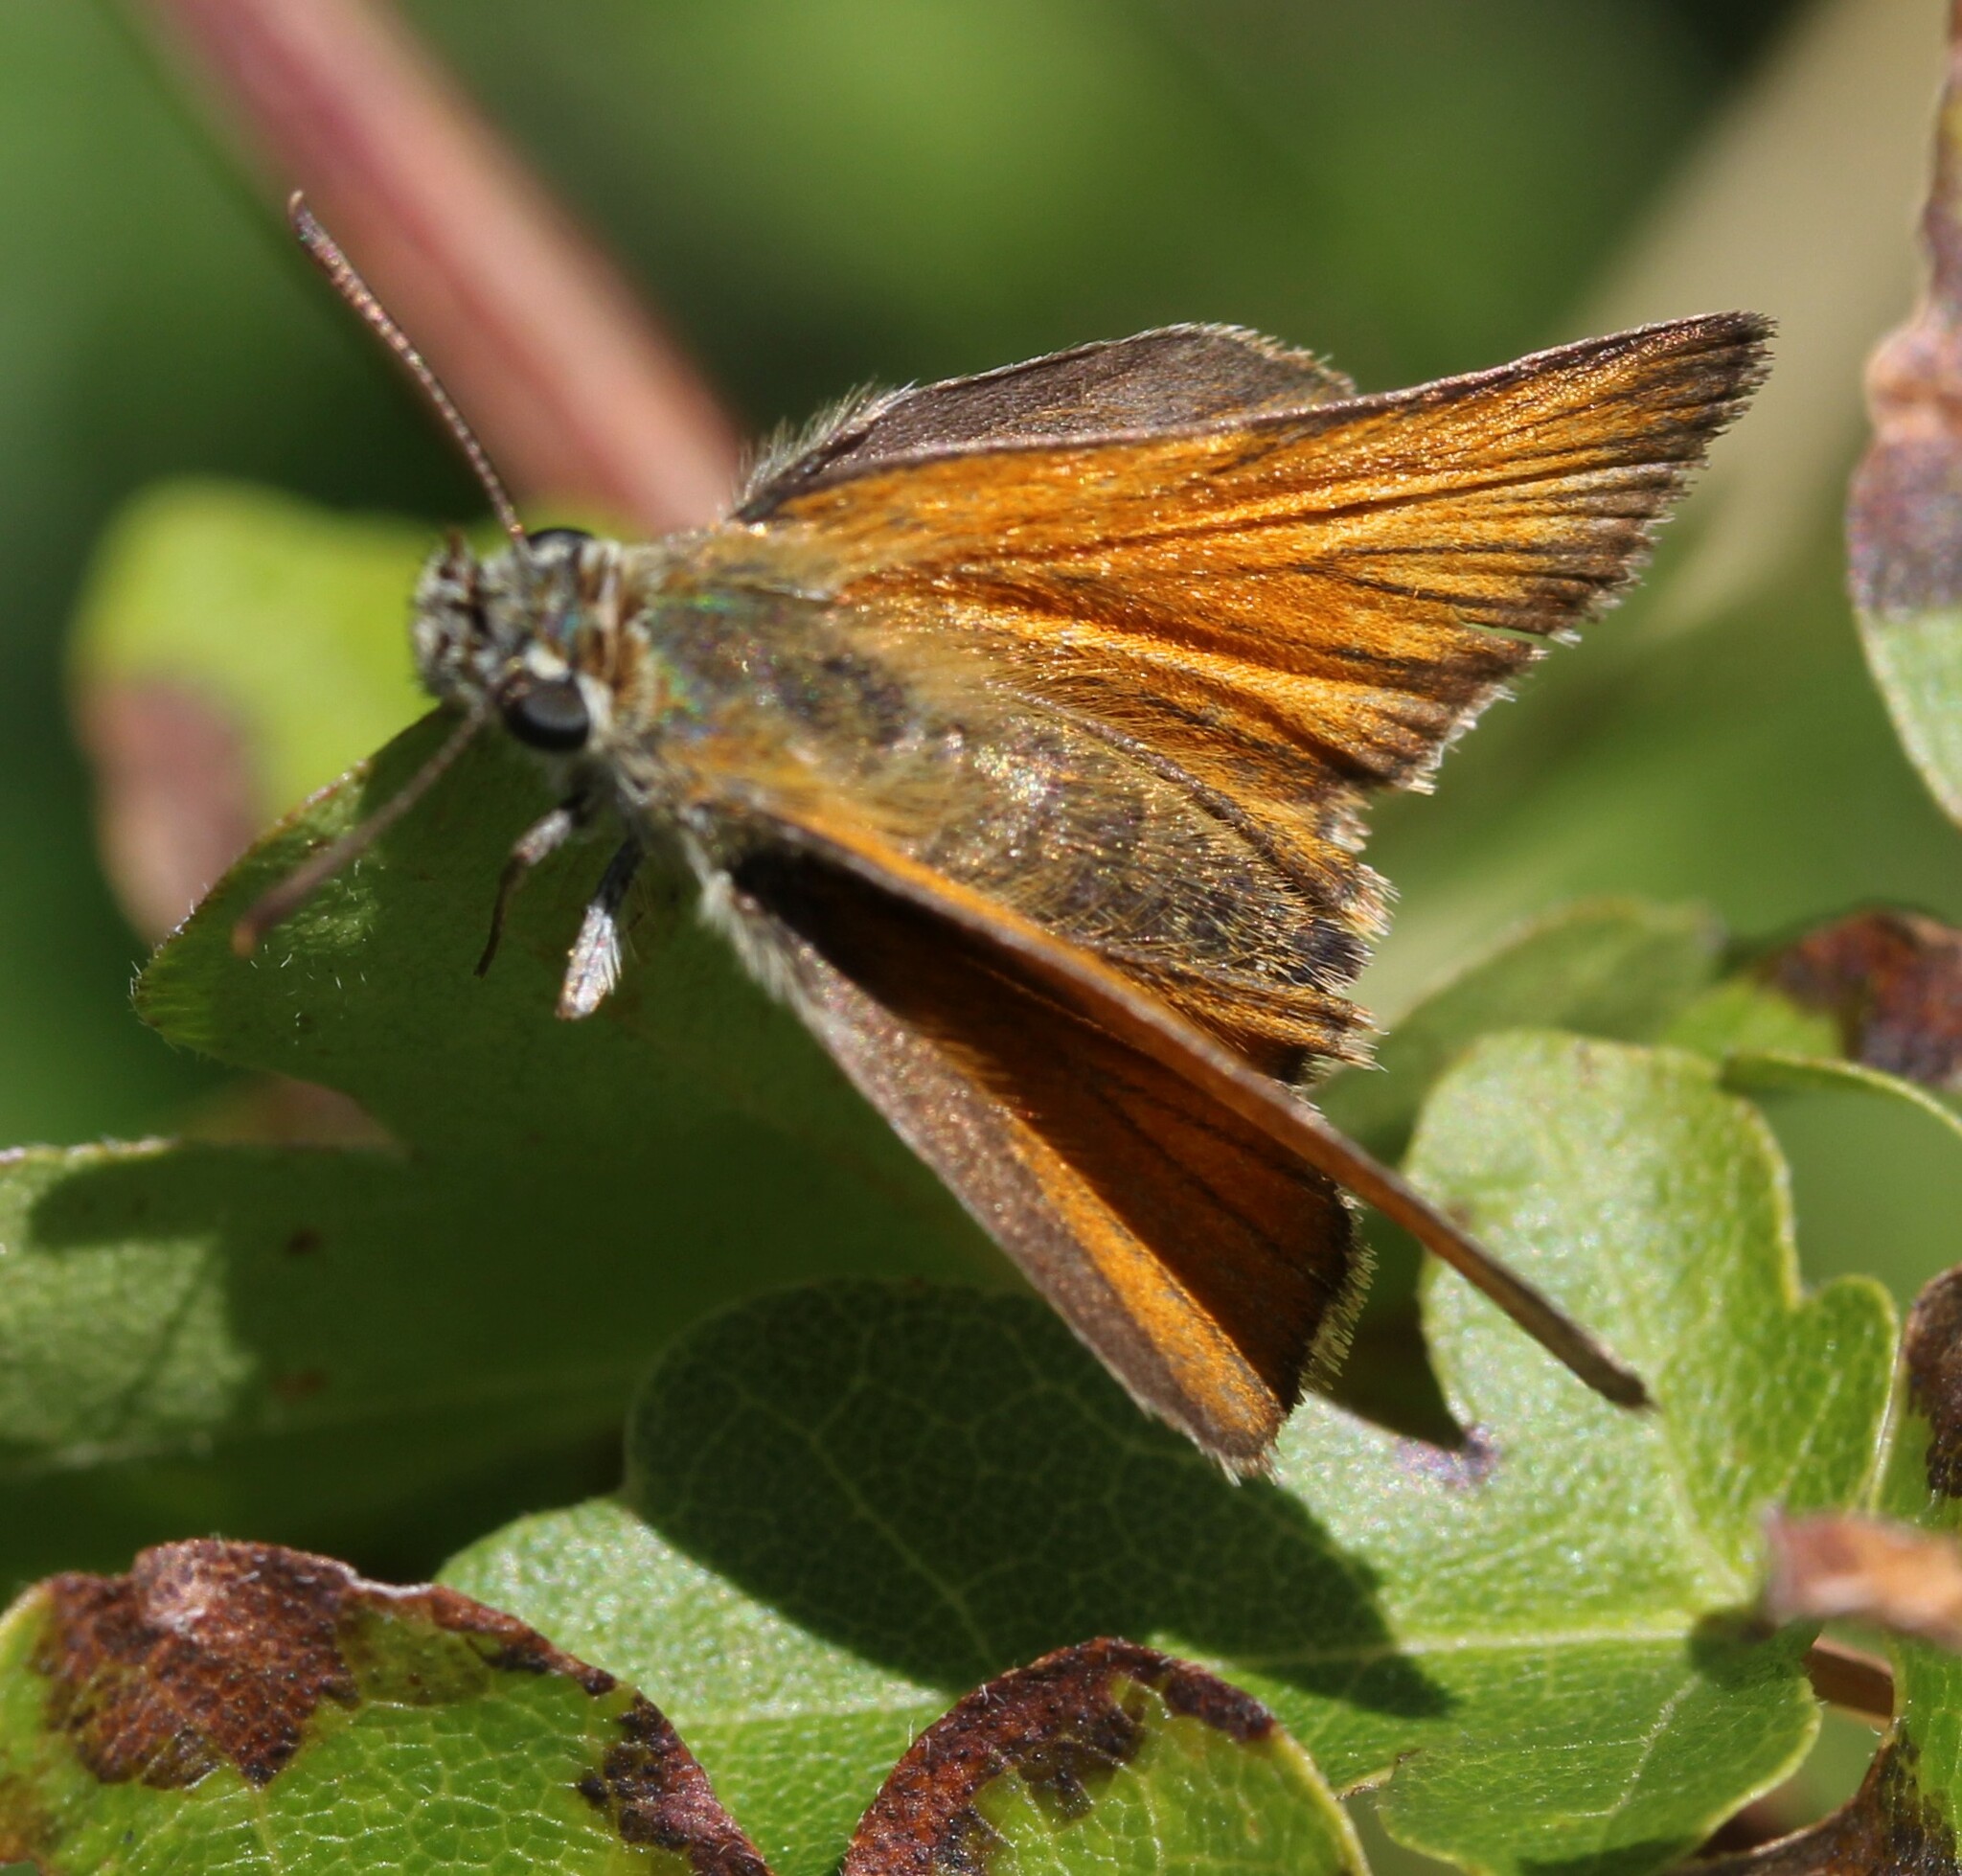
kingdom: Animalia
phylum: Arthropoda
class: Insecta
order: Lepidoptera
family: Hesperiidae
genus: Thymelicus
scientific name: Thymelicus sylvestris
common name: Small skipper
